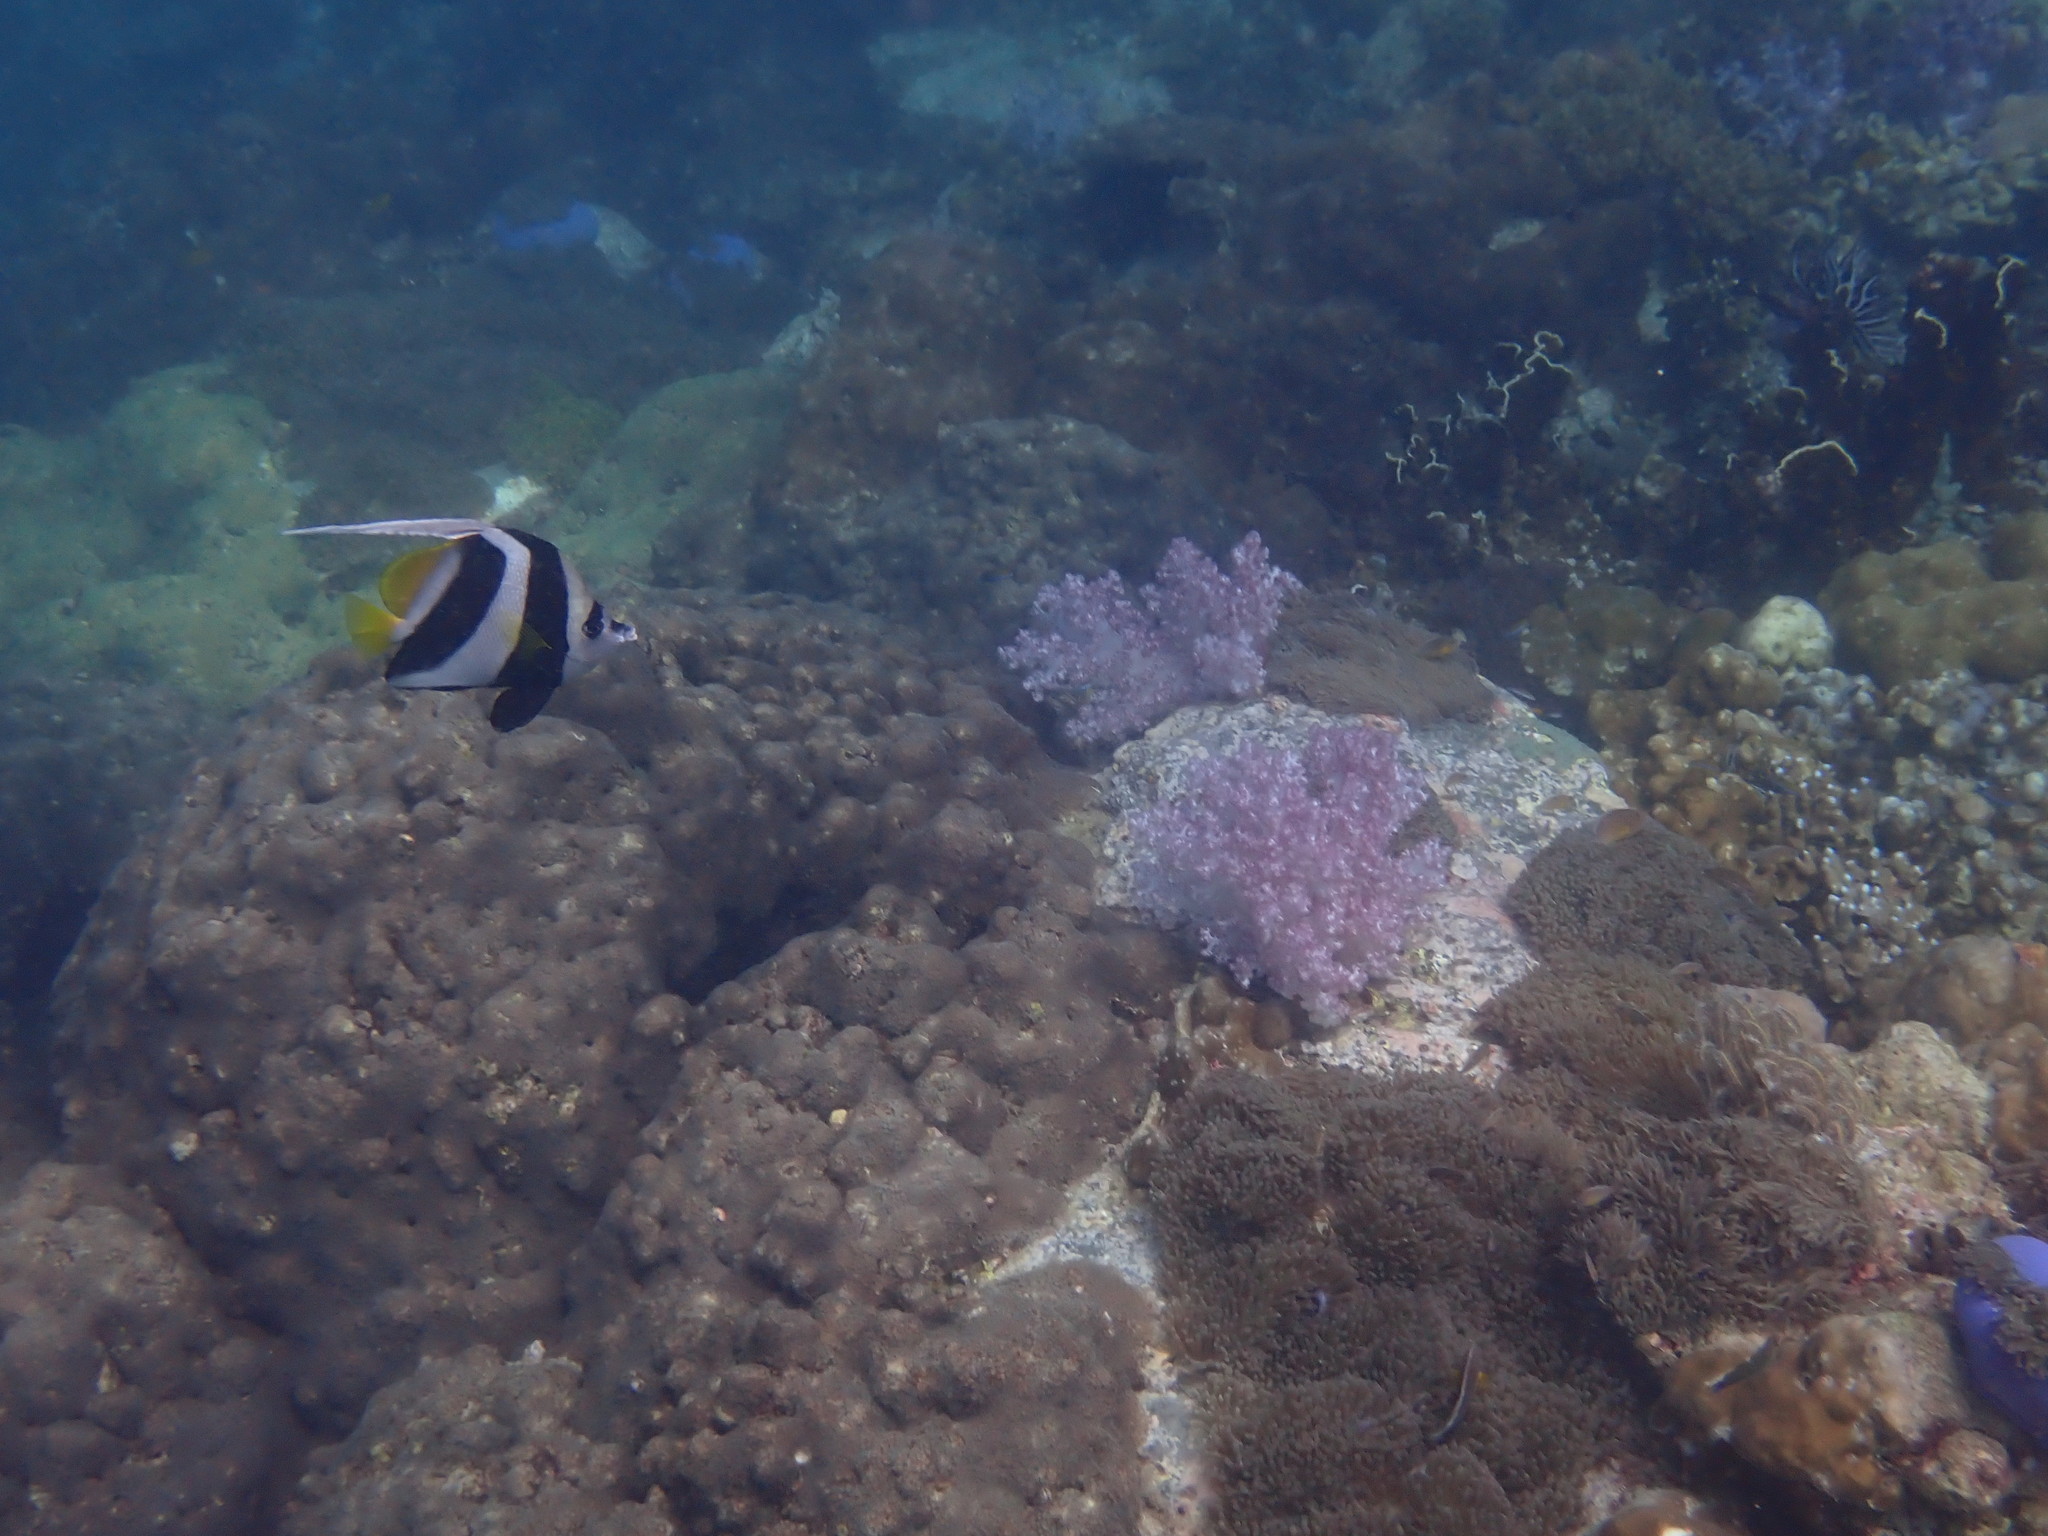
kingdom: Animalia
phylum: Chordata
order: Perciformes
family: Chaetodontidae
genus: Heniochus
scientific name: Heniochus acuminatus
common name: Pennant coralfish
